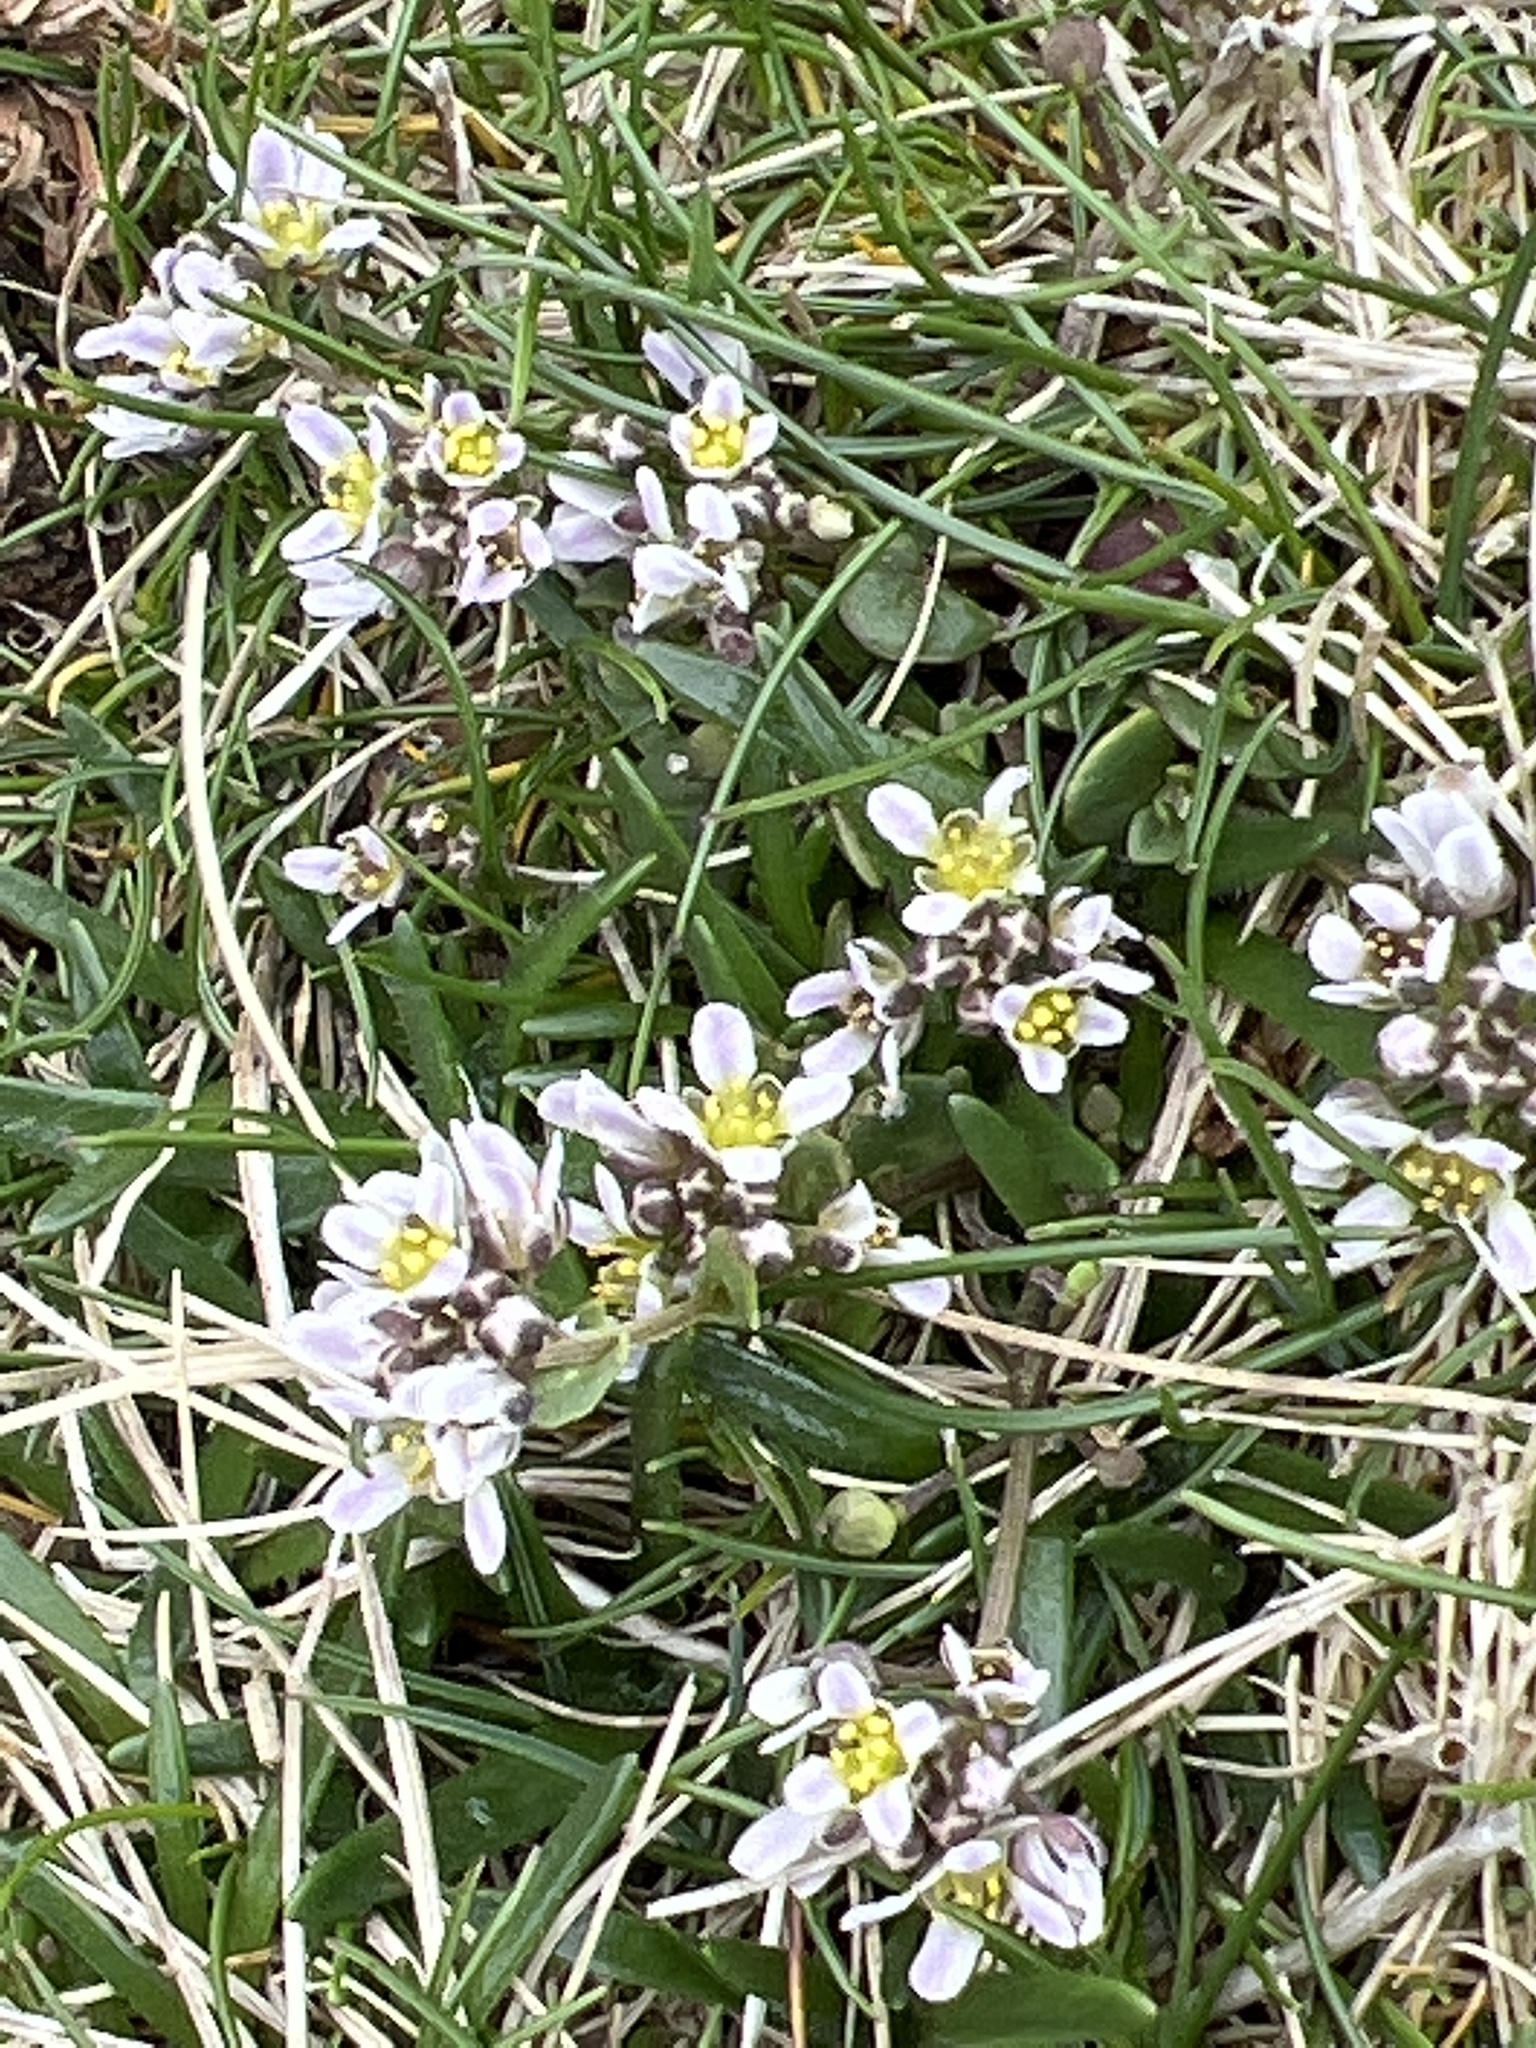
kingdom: Plantae
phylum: Tracheophyta
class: Magnoliopsida
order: Brassicales
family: Brassicaceae
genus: Cochlearia
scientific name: Cochlearia officinalis
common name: Scurvy-grass
